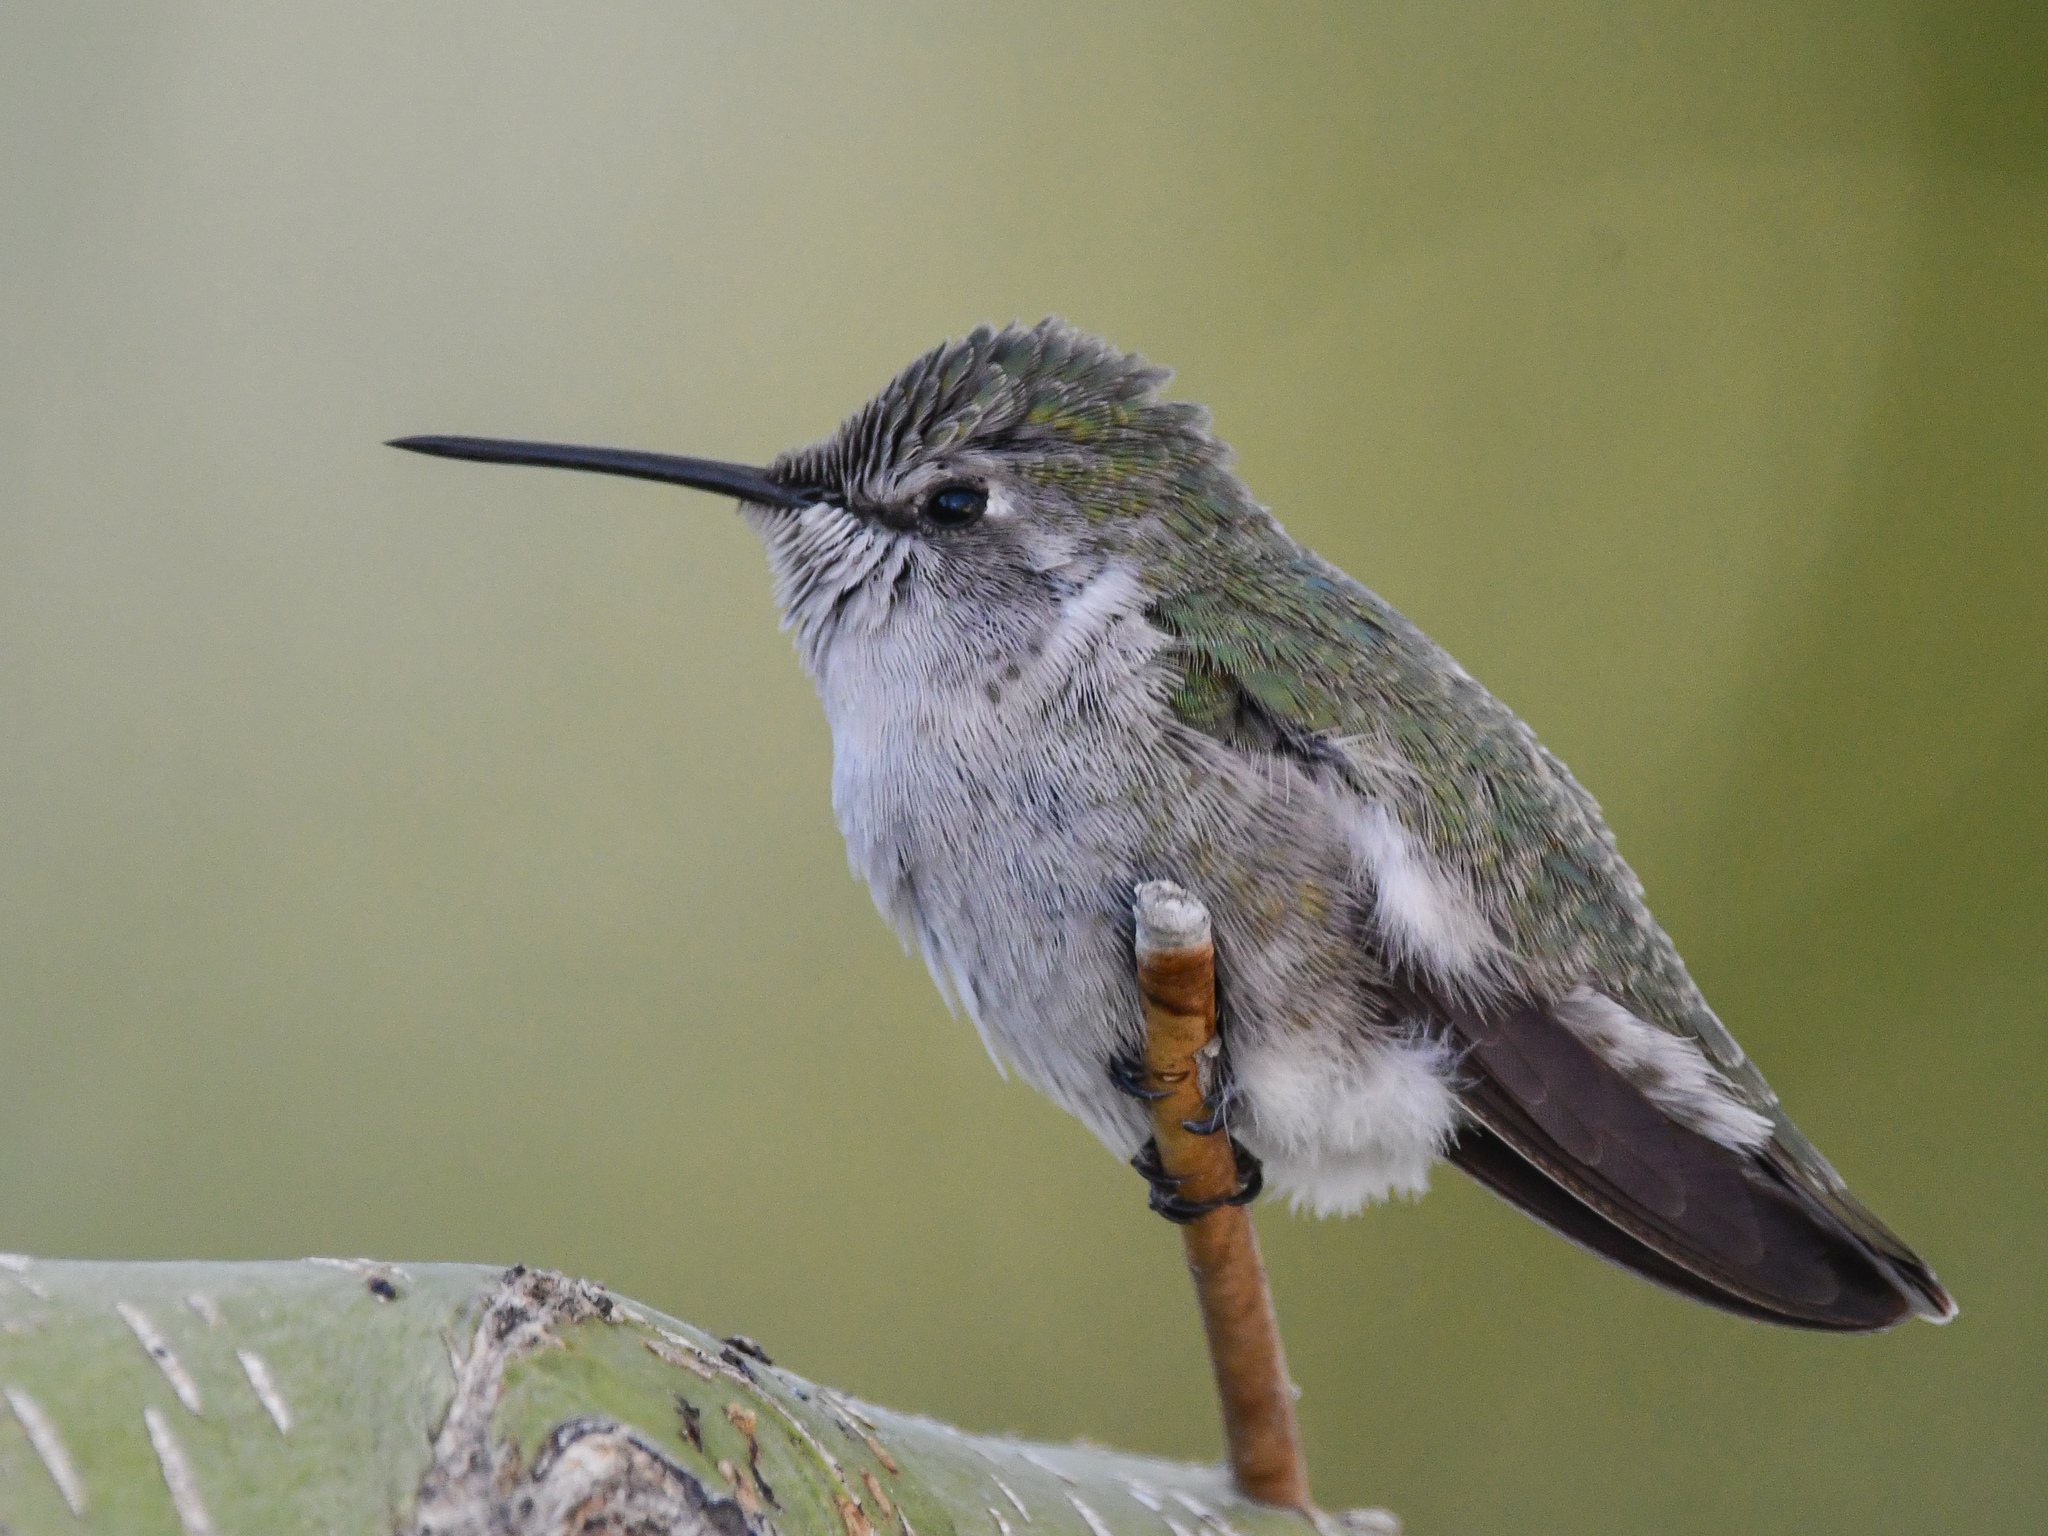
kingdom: Animalia
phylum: Chordata
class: Aves
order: Apodiformes
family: Trochilidae
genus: Calypte
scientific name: Calypte costae
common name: Costa's hummingbird
